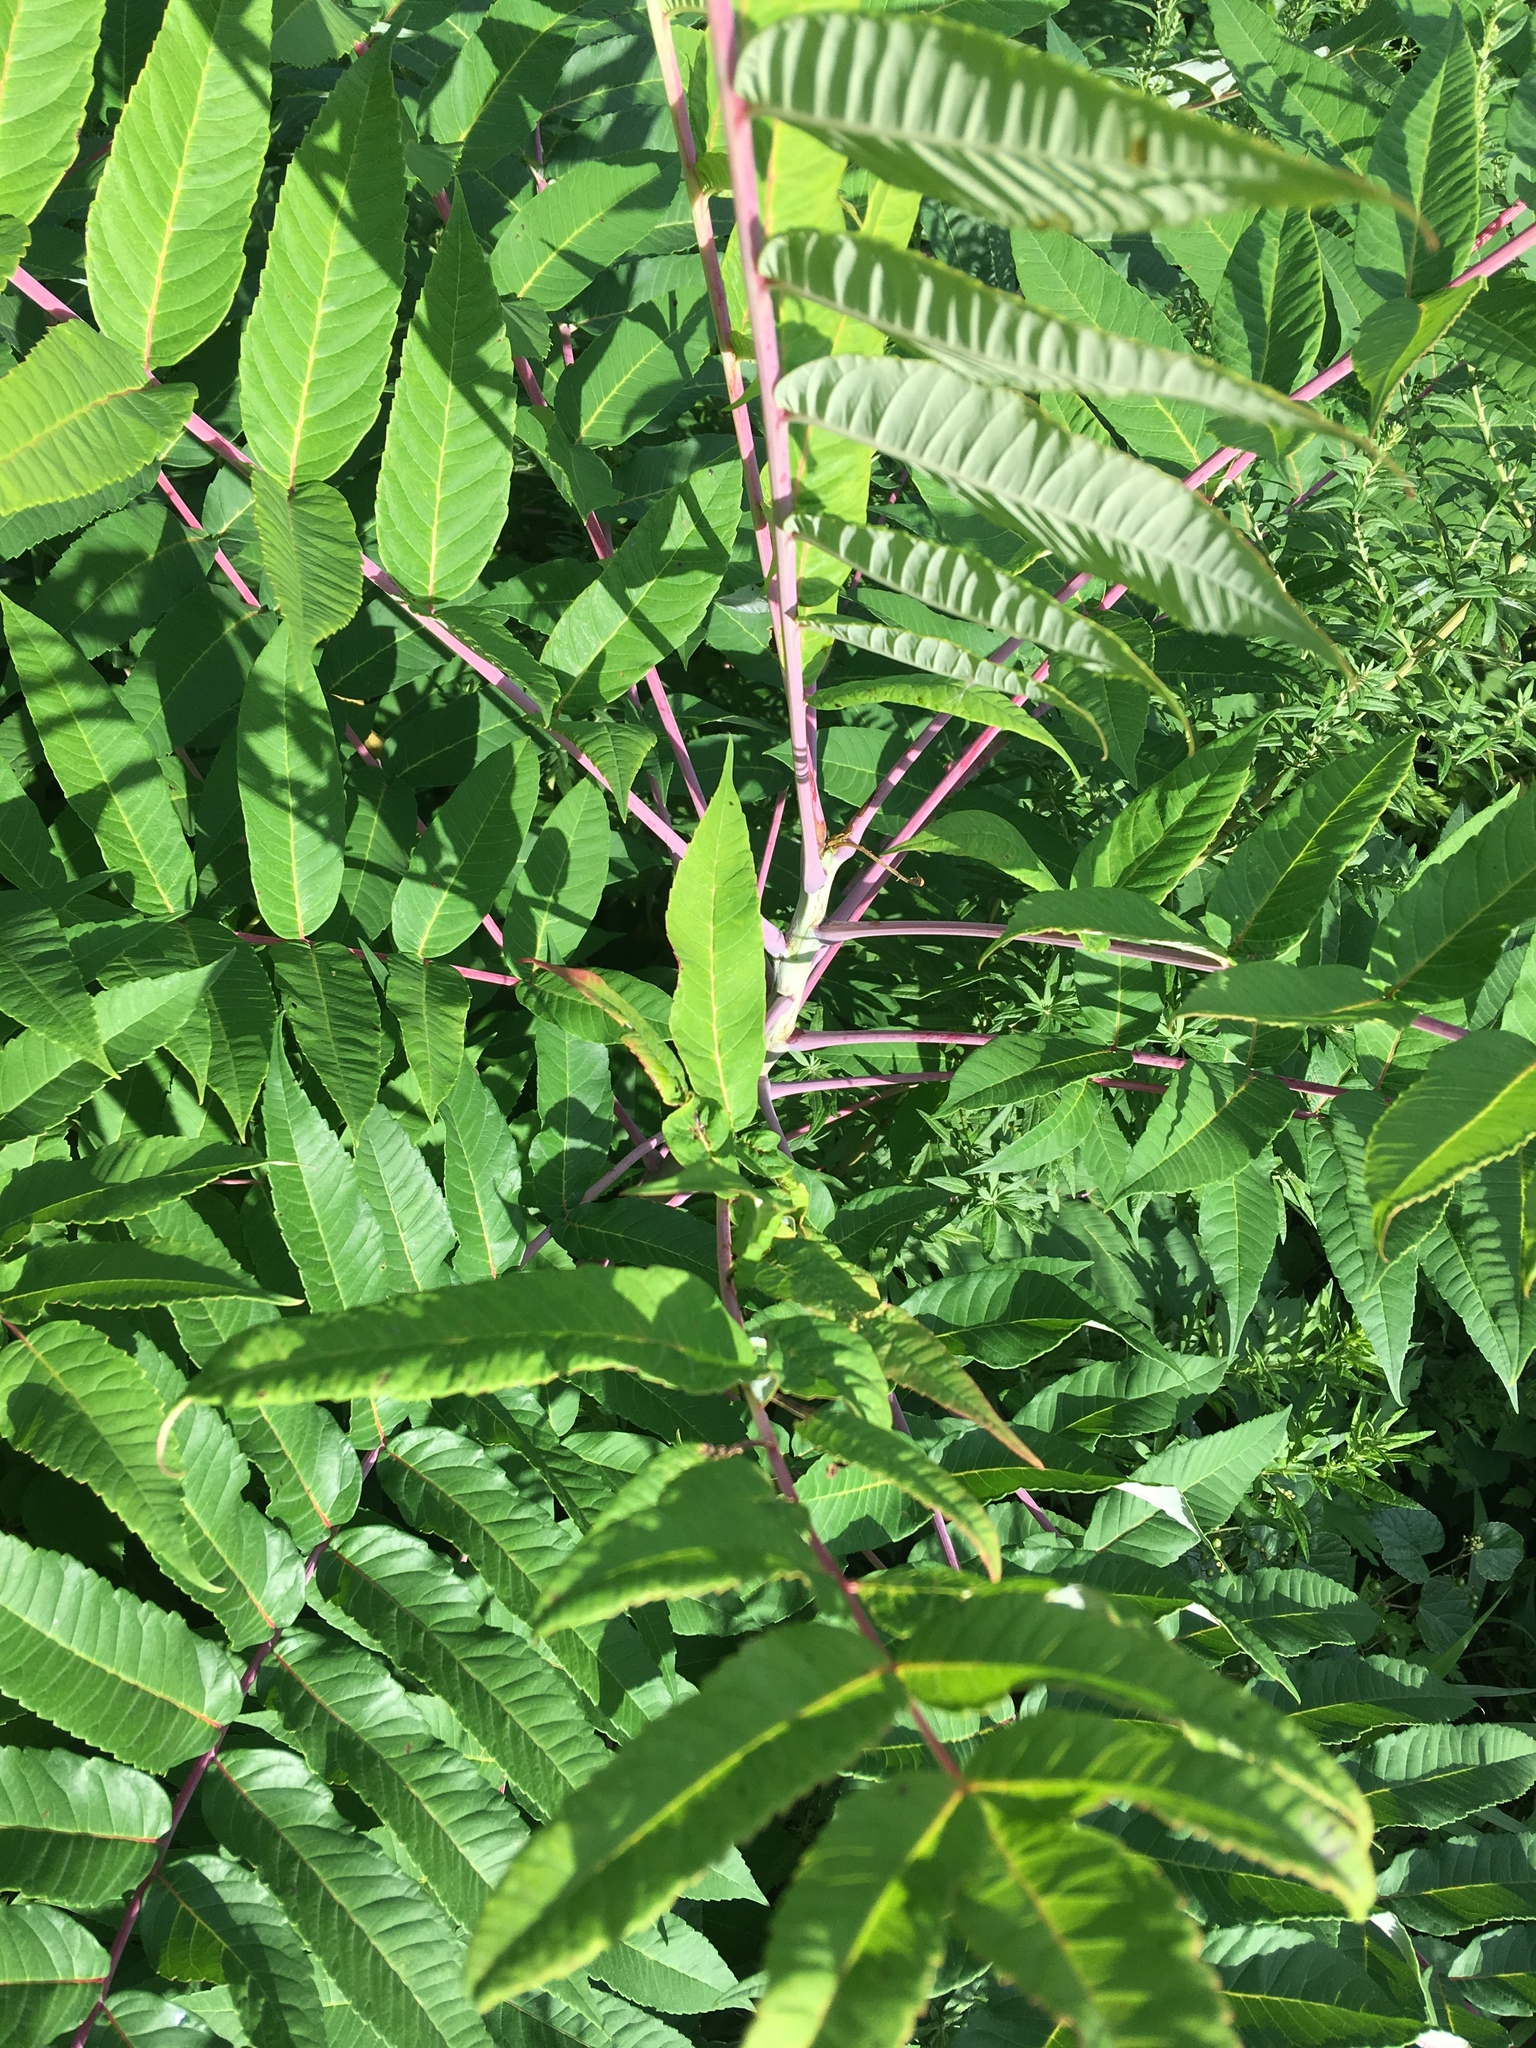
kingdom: Plantae
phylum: Tracheophyta
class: Magnoliopsida
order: Sapindales
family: Anacardiaceae
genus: Rhus
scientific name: Rhus glabra
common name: Scarlet sumac
